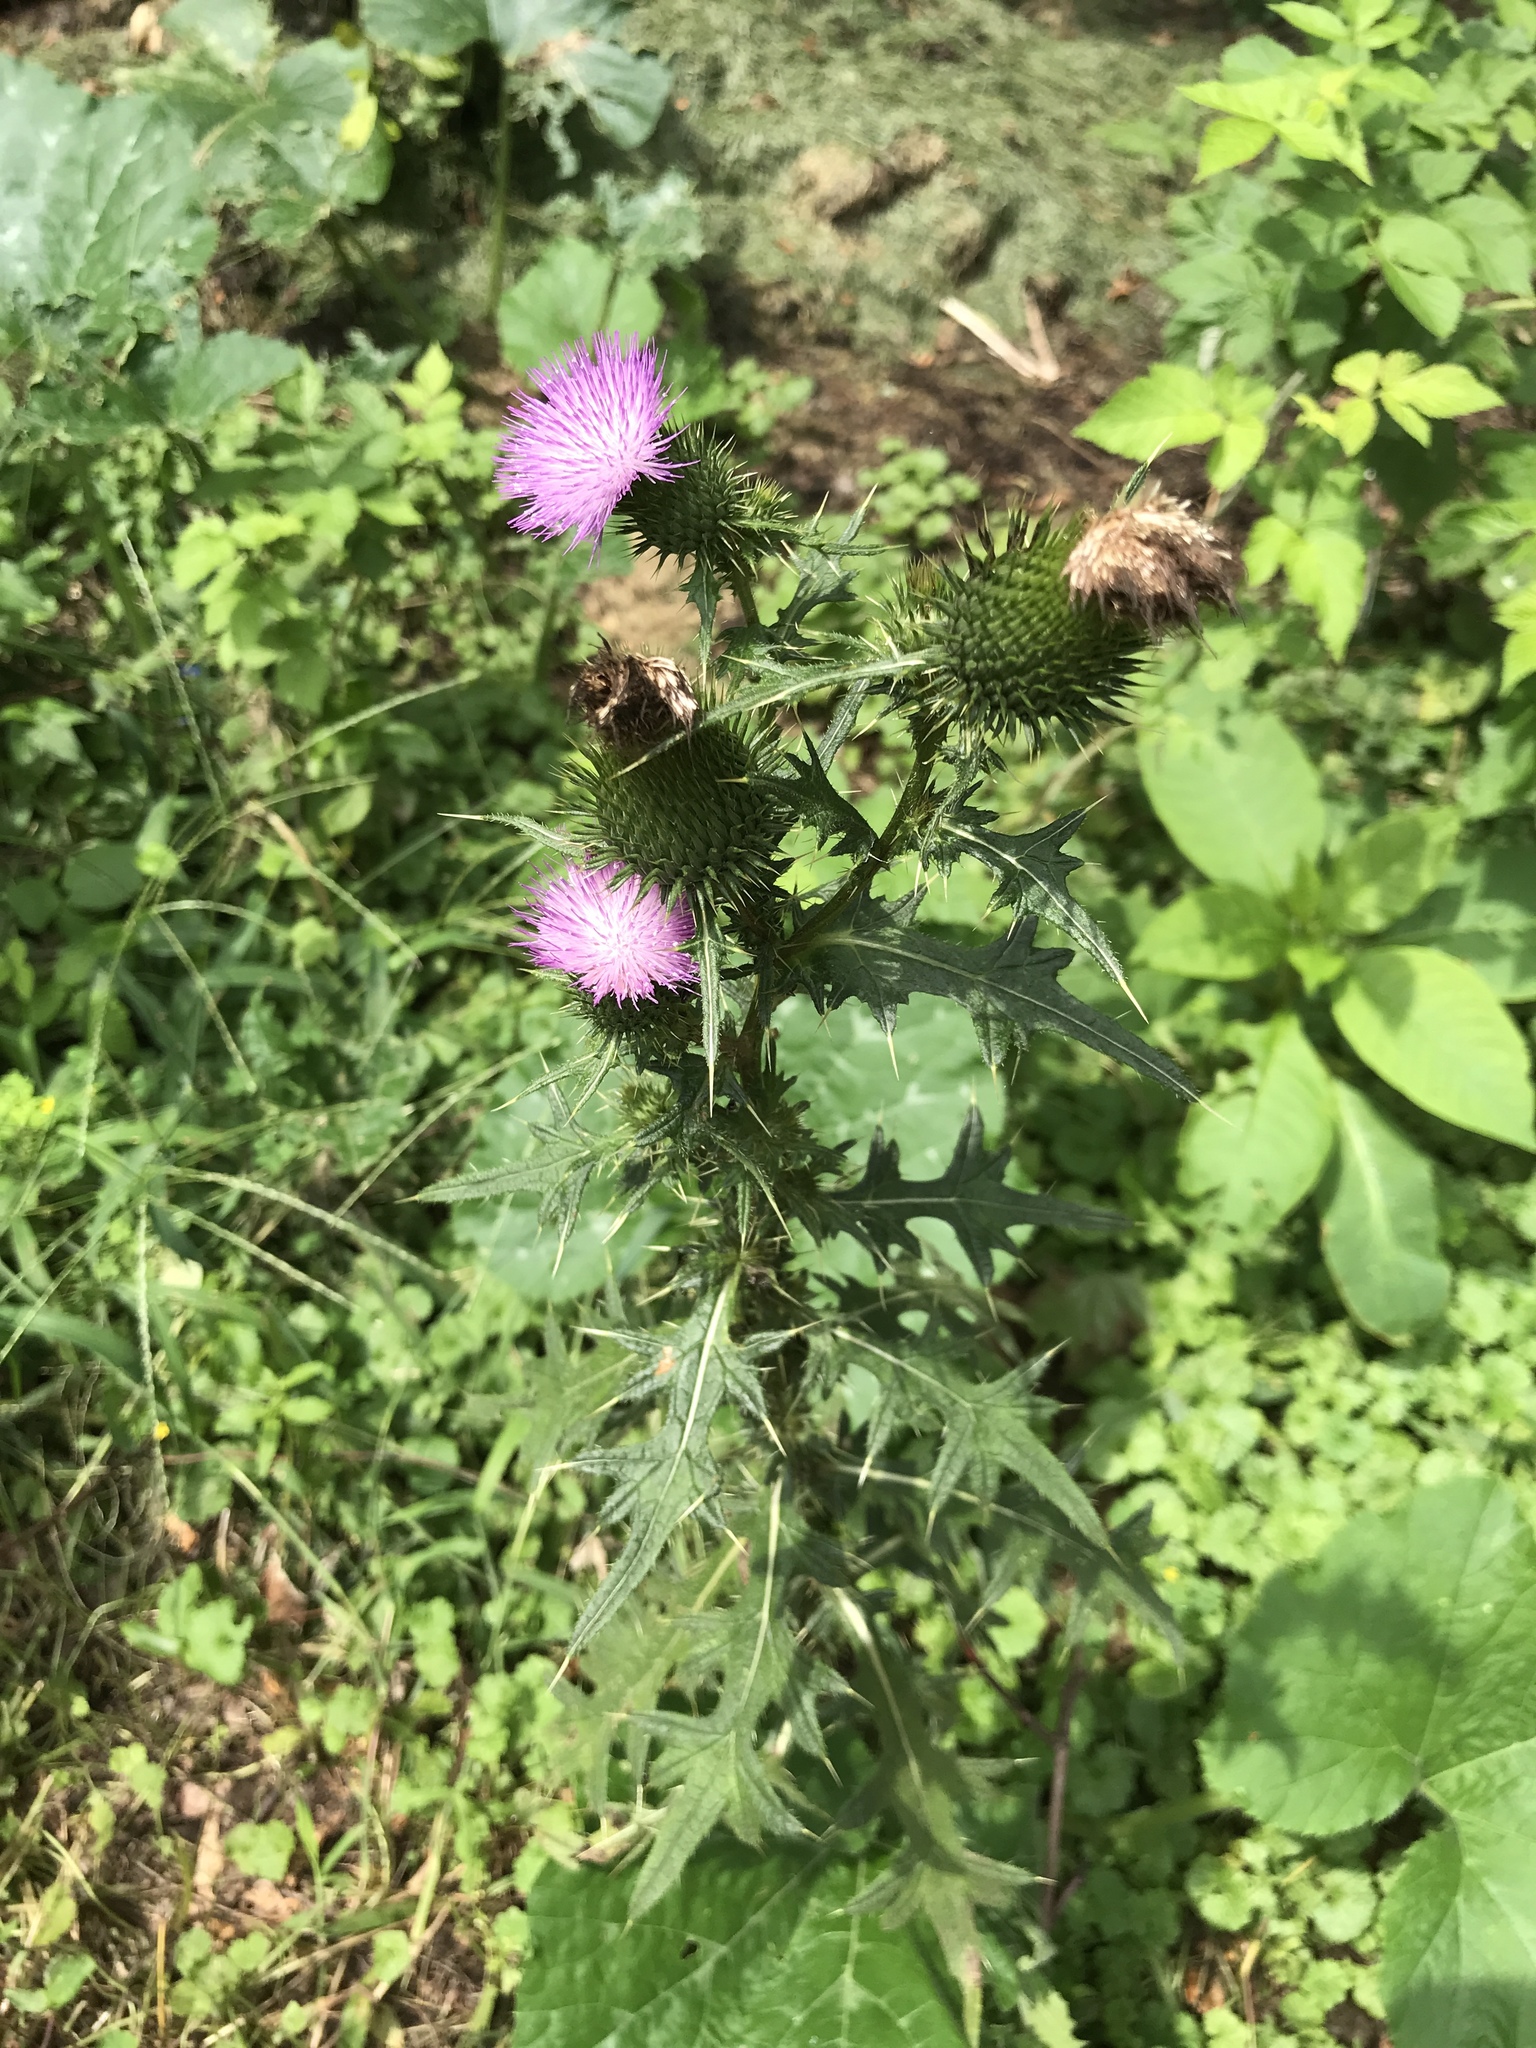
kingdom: Plantae
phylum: Tracheophyta
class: Magnoliopsida
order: Asterales
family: Asteraceae
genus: Cirsium
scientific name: Cirsium vulgare
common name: Bull thistle
